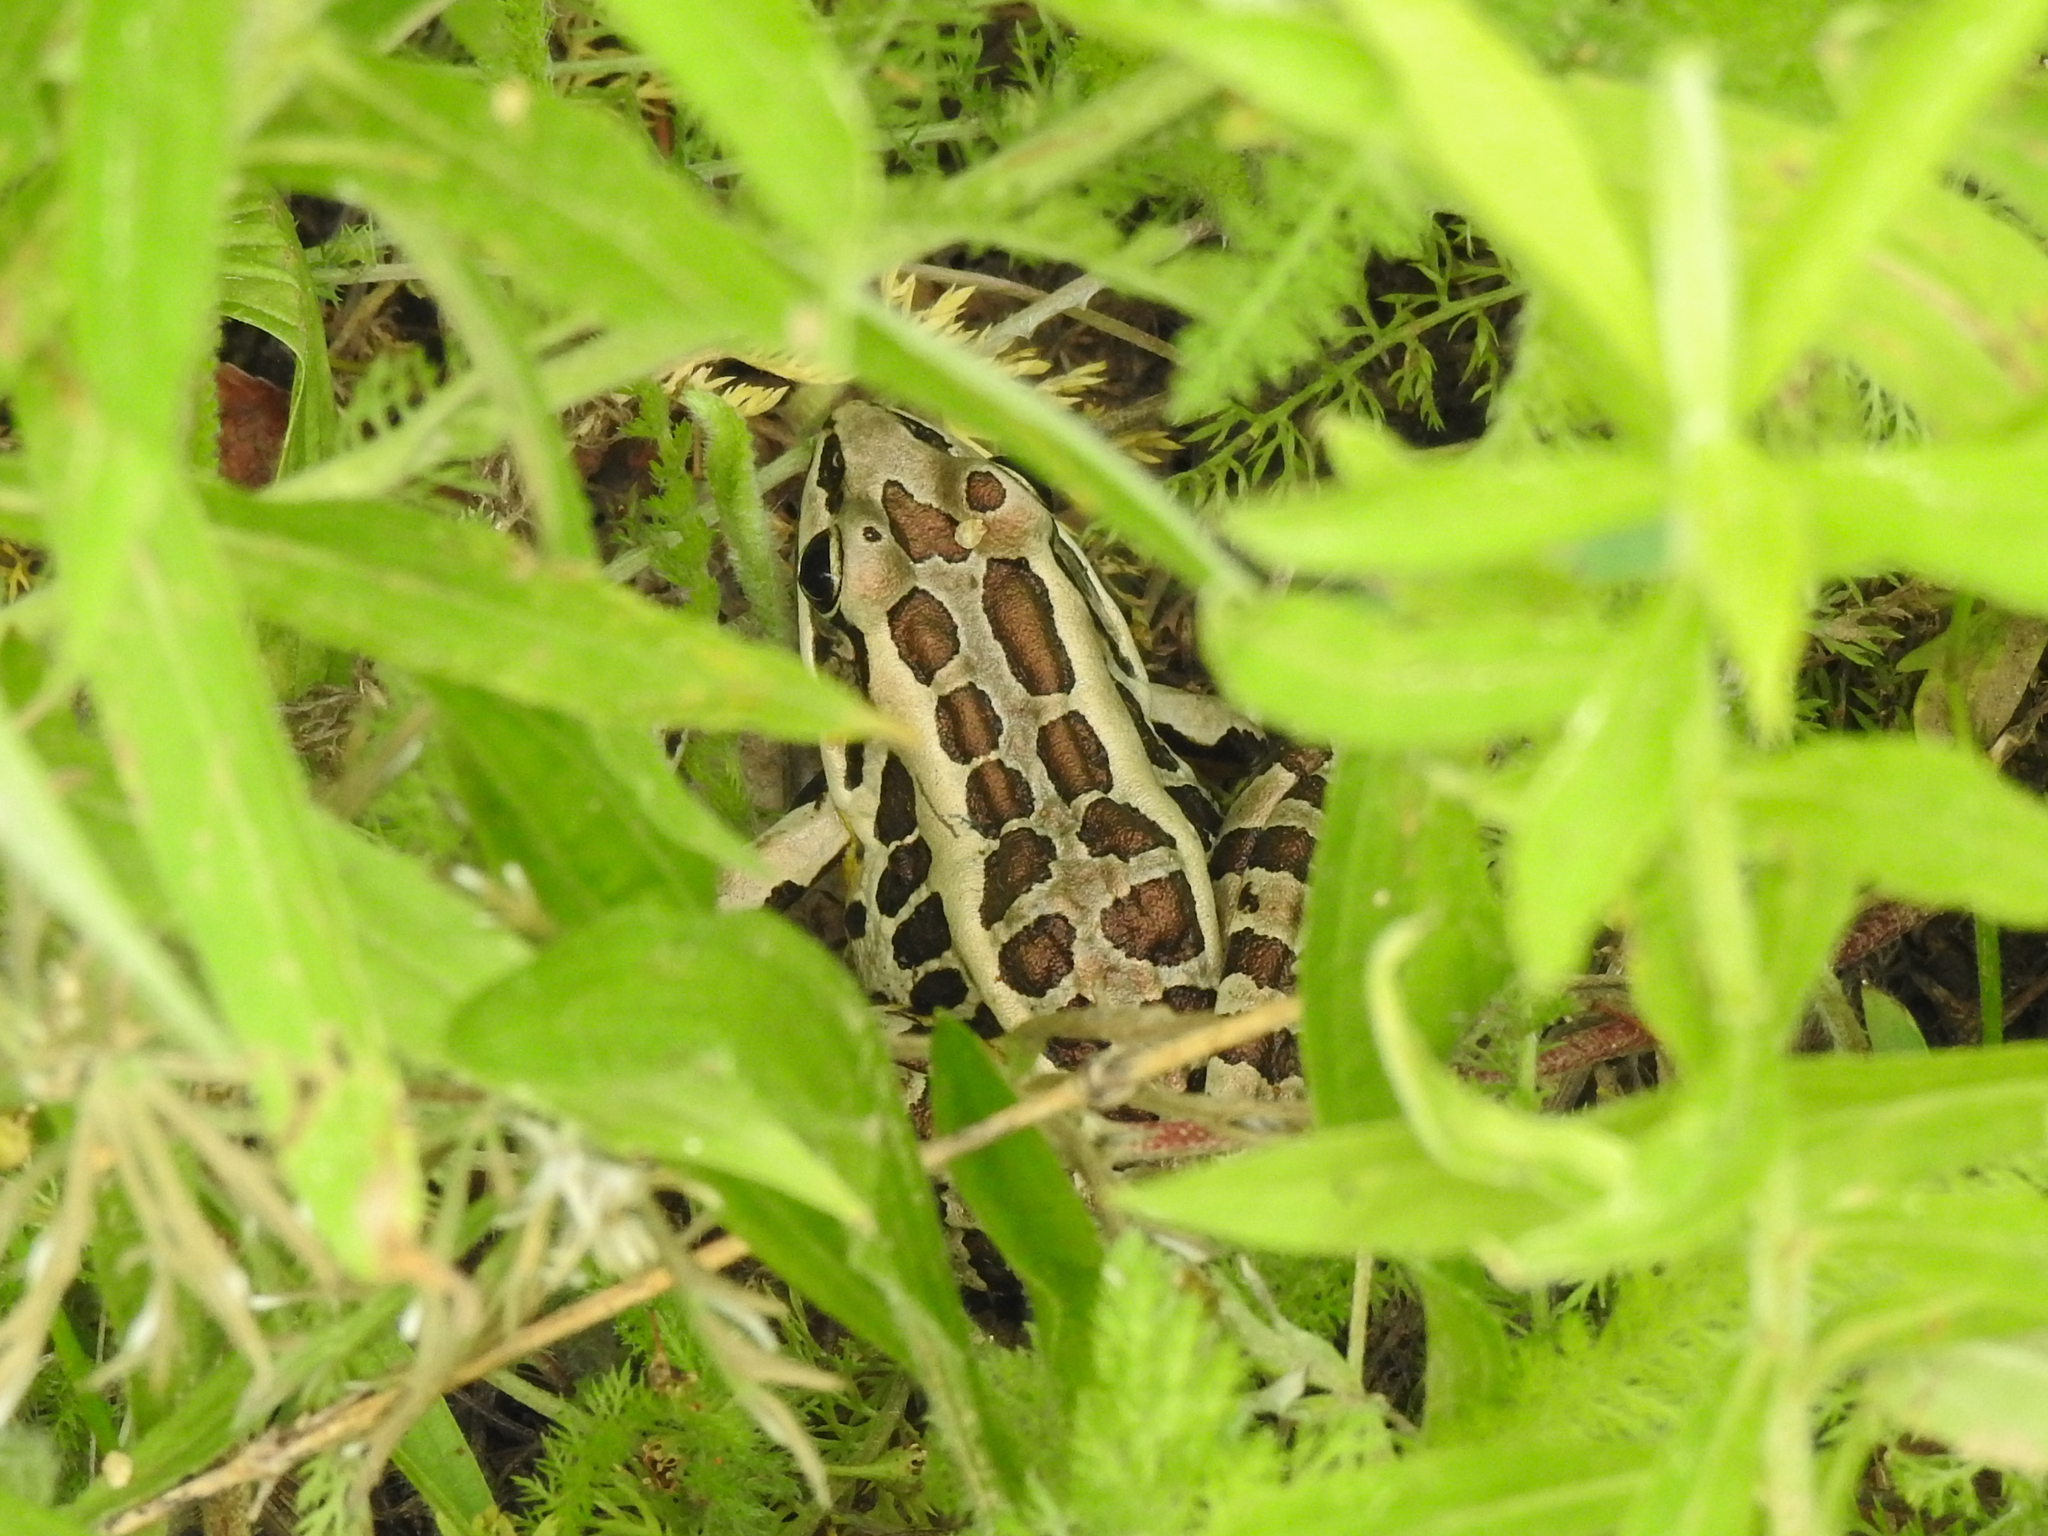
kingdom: Animalia
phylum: Chordata
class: Amphibia
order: Anura
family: Ranidae
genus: Lithobates
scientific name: Lithobates palustris
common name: Pickerel frog
